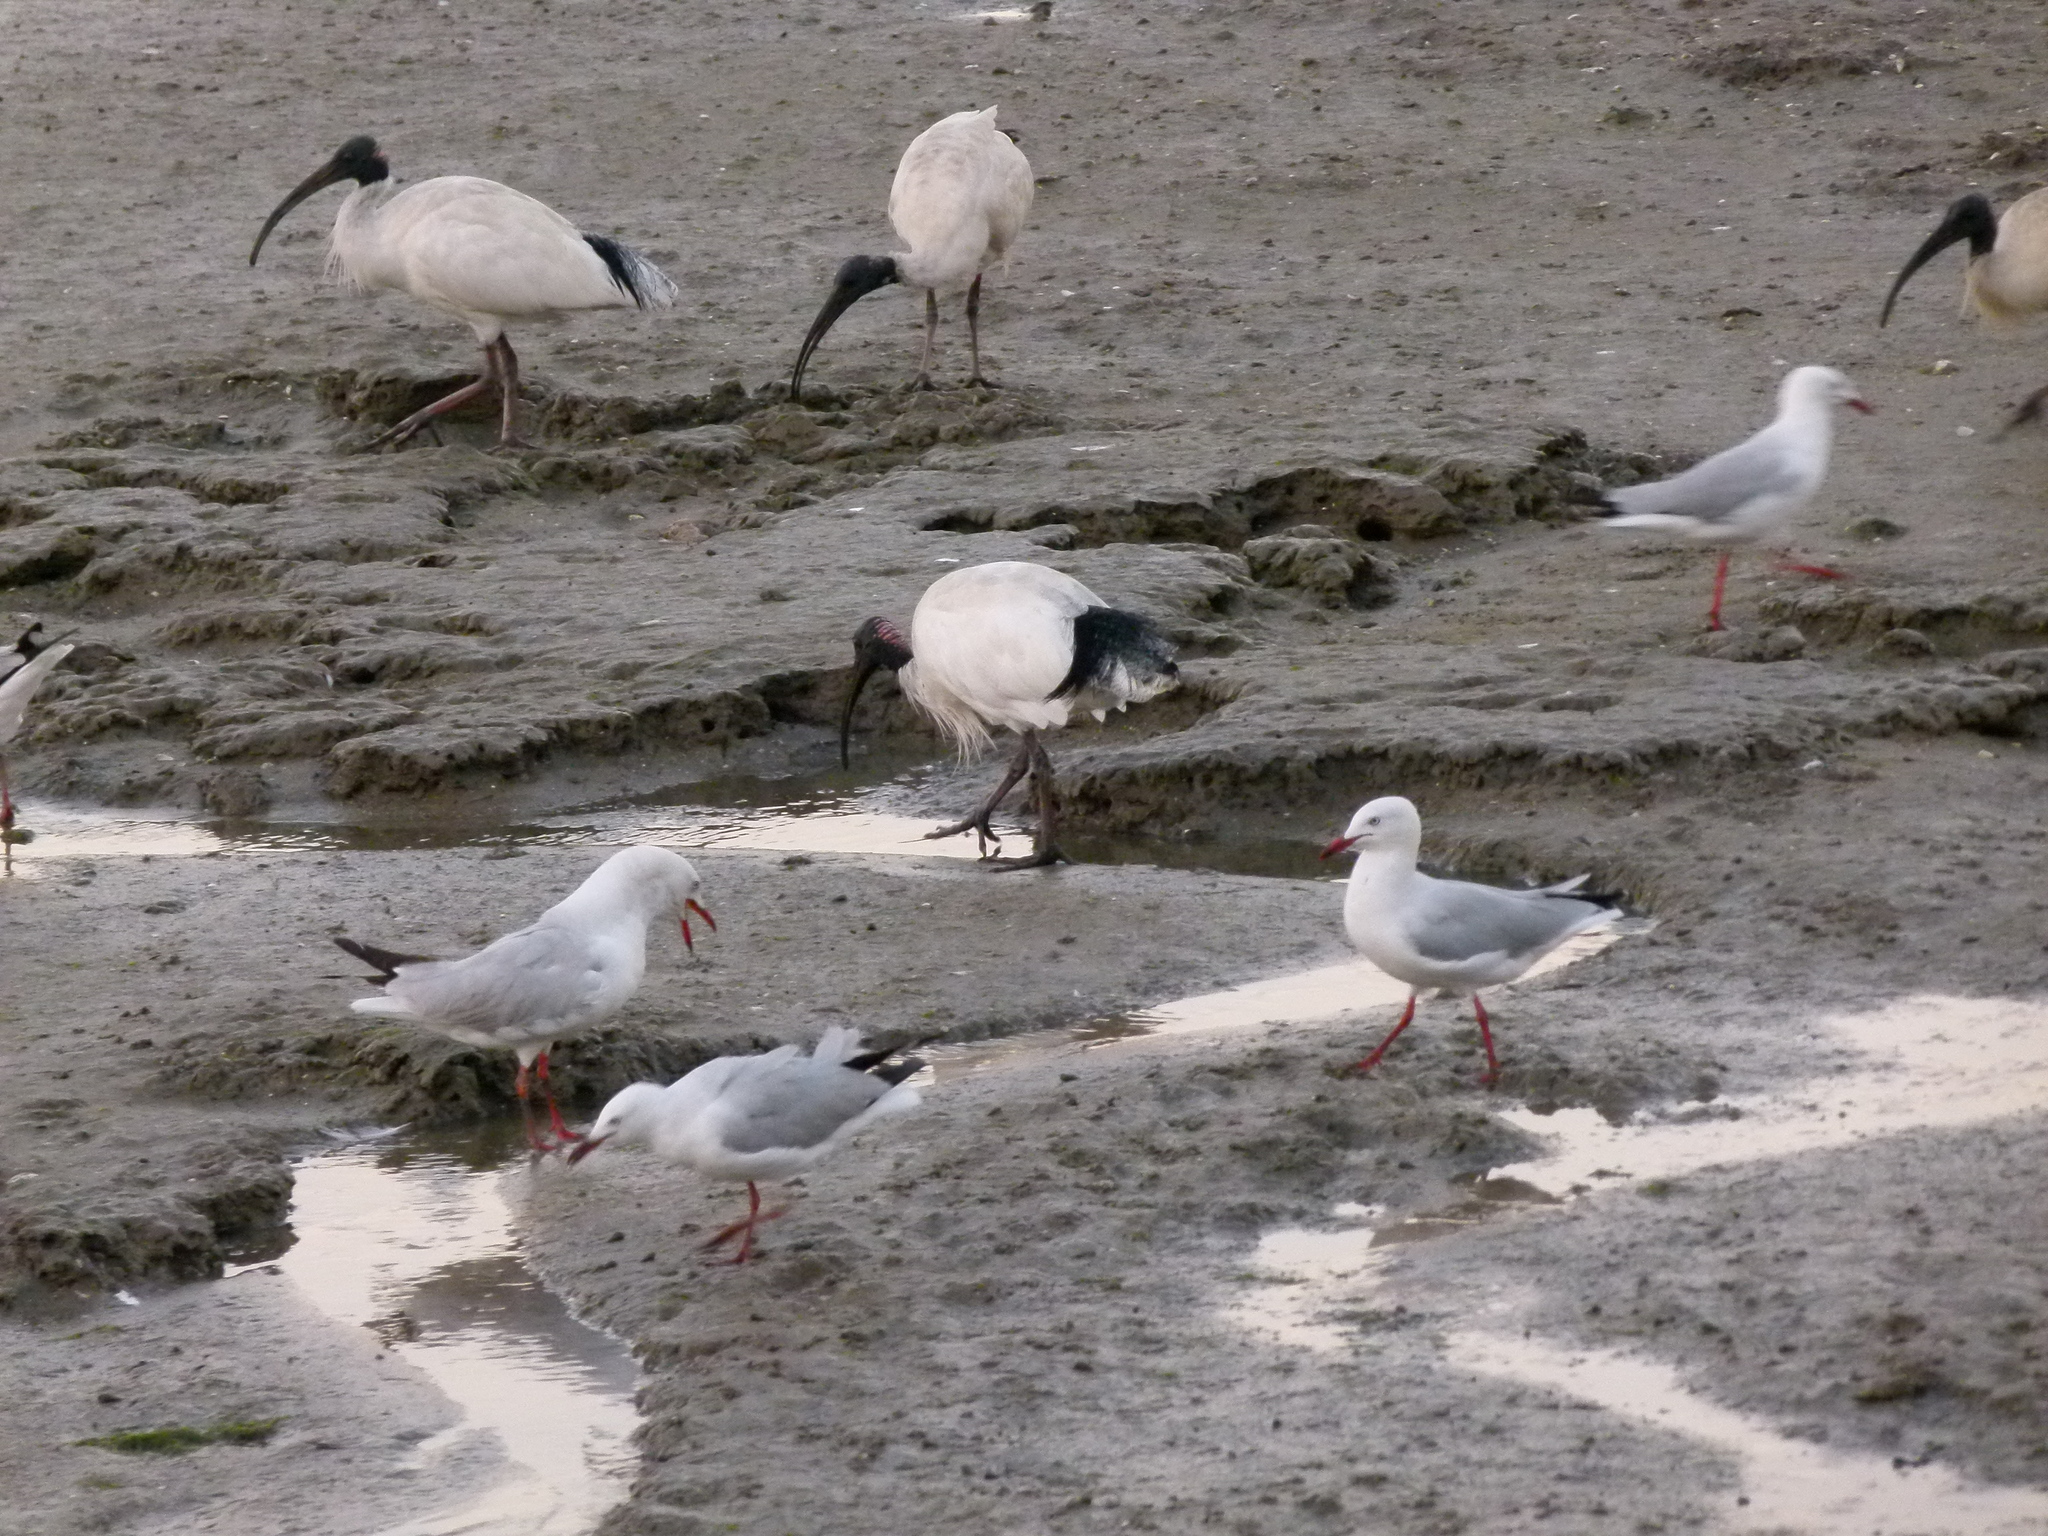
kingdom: Animalia
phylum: Chordata
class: Aves
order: Pelecaniformes
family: Threskiornithidae
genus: Threskiornis
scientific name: Threskiornis molucca
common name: Australian white ibis
